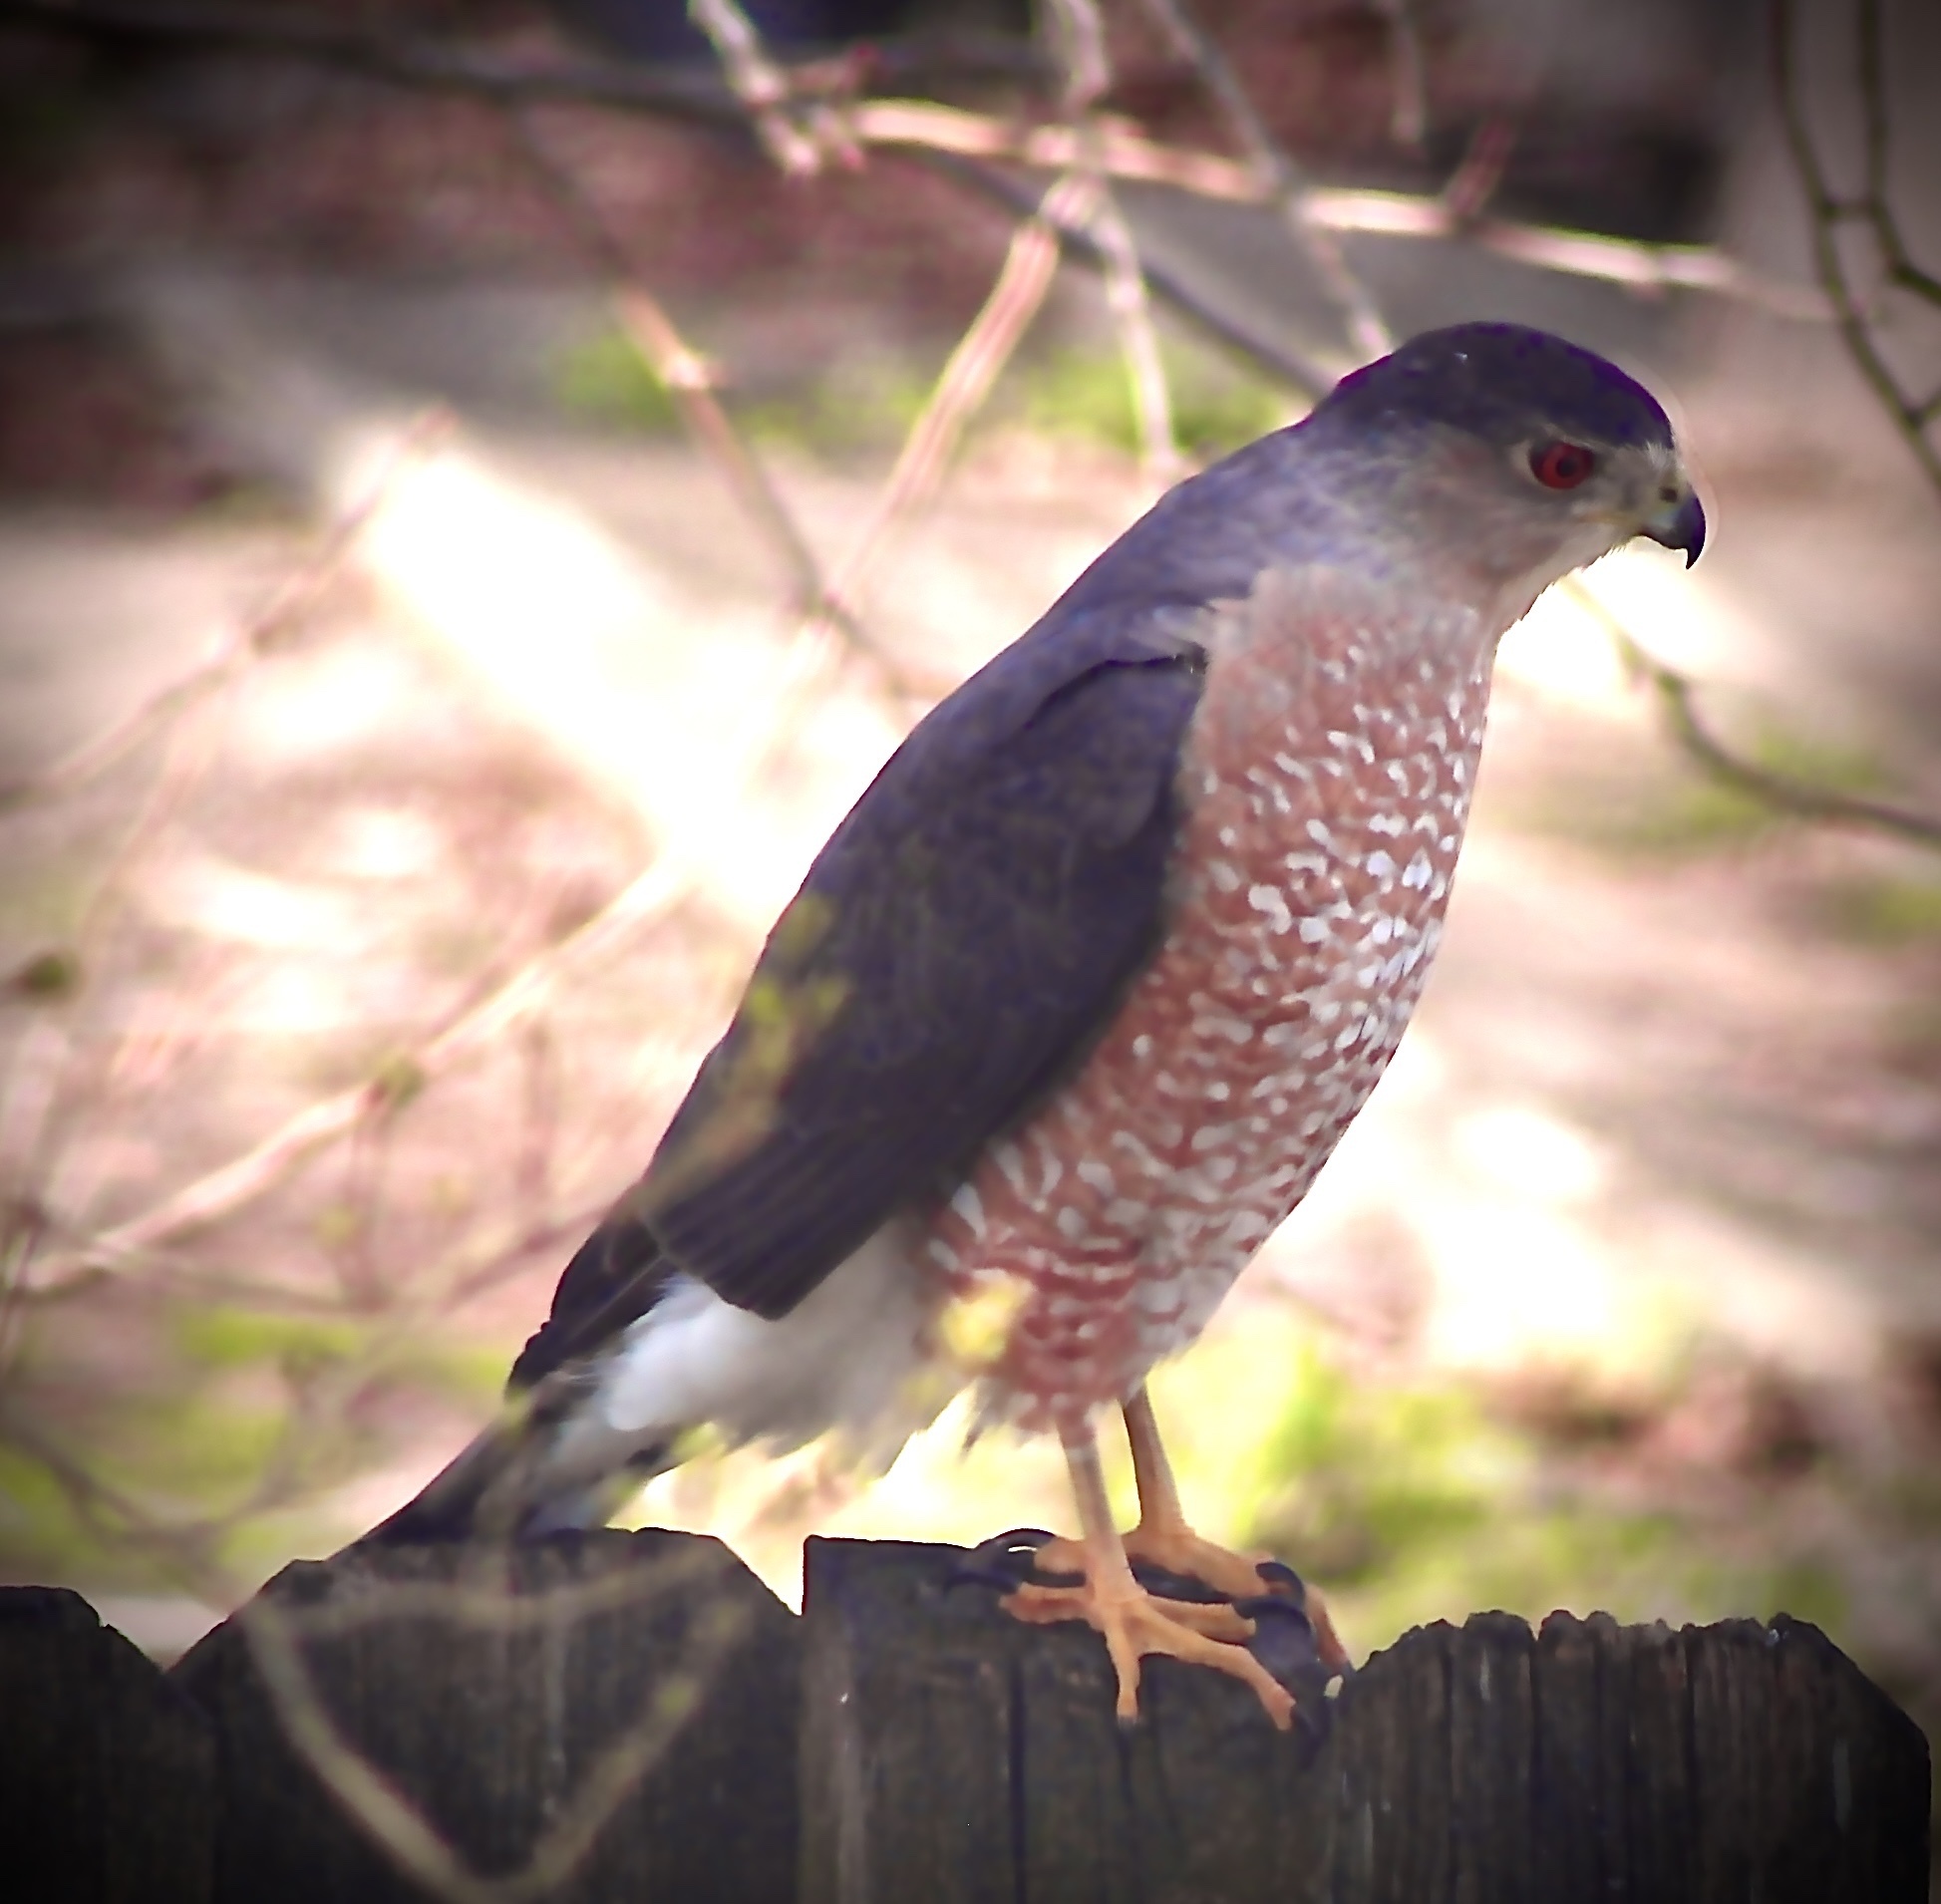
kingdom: Animalia
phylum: Chordata
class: Aves
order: Accipitriformes
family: Accipitridae
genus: Accipiter
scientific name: Accipiter cooperii
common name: Cooper's hawk
